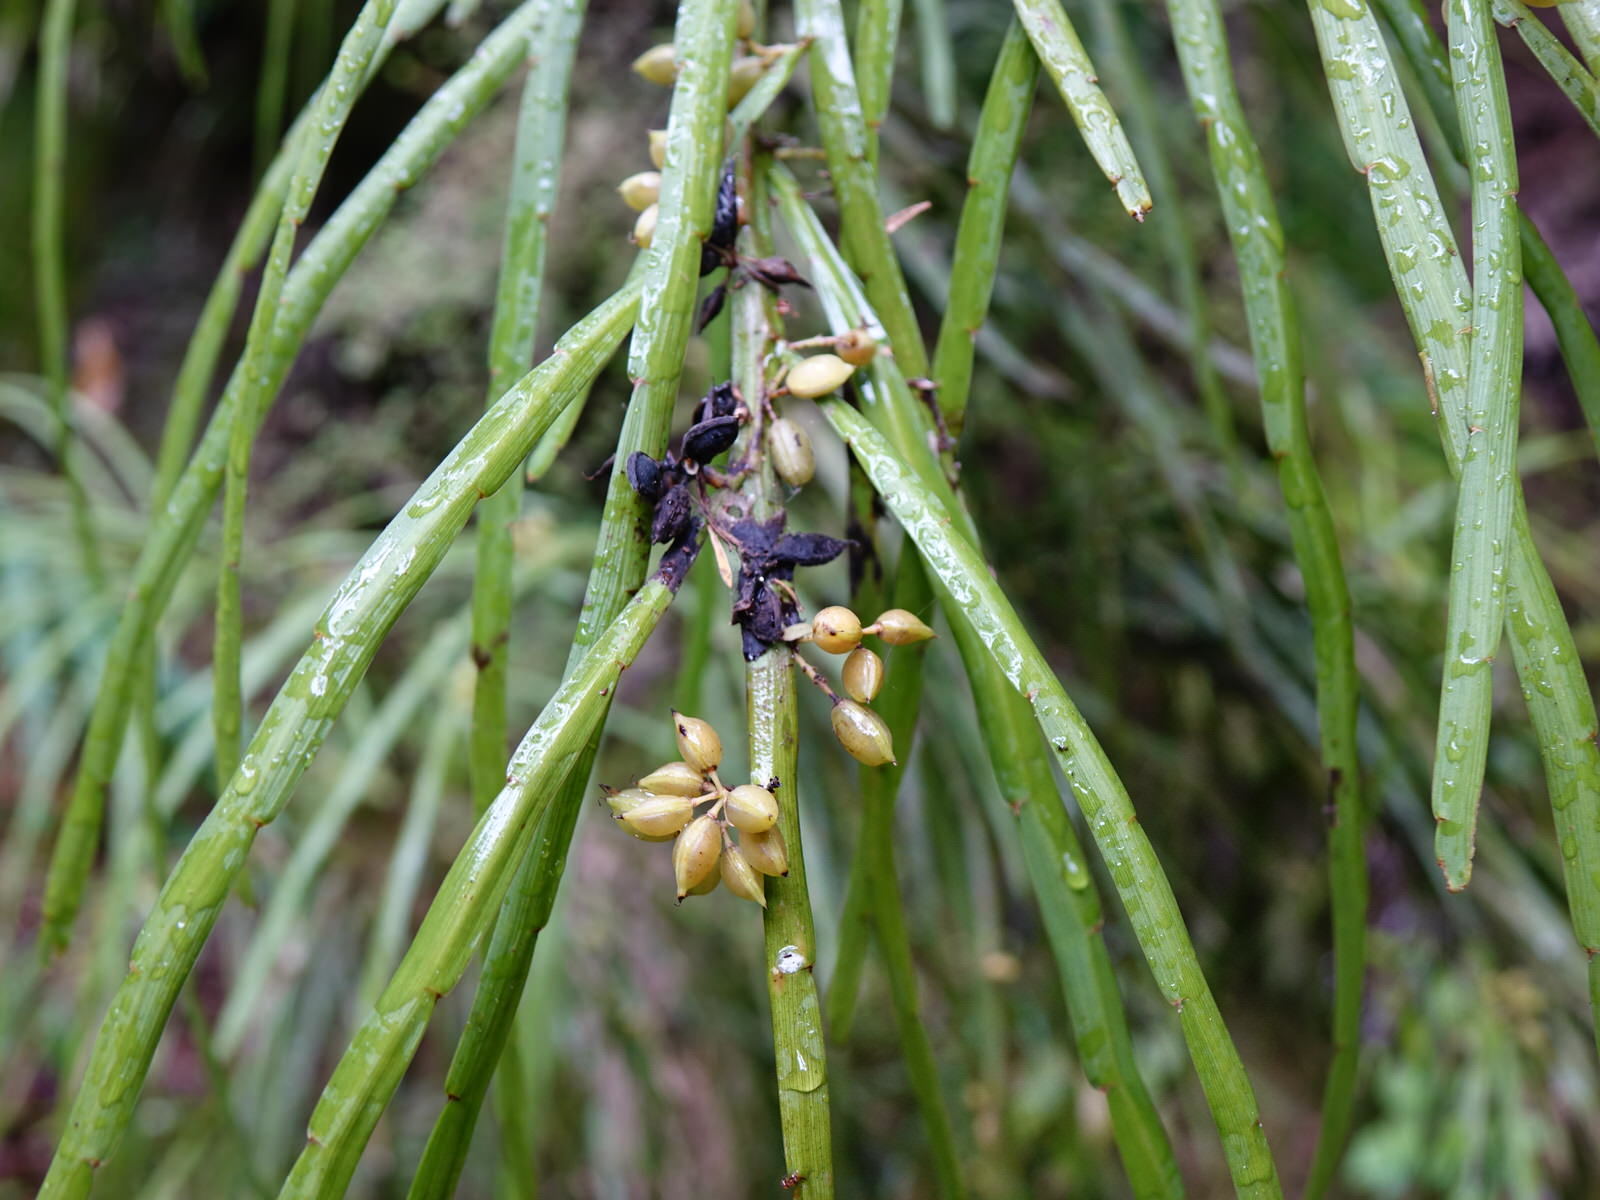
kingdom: Plantae
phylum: Tracheophyta
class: Magnoliopsida
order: Fabales
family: Fabaceae
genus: Carmichaelia
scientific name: Carmichaelia australis
